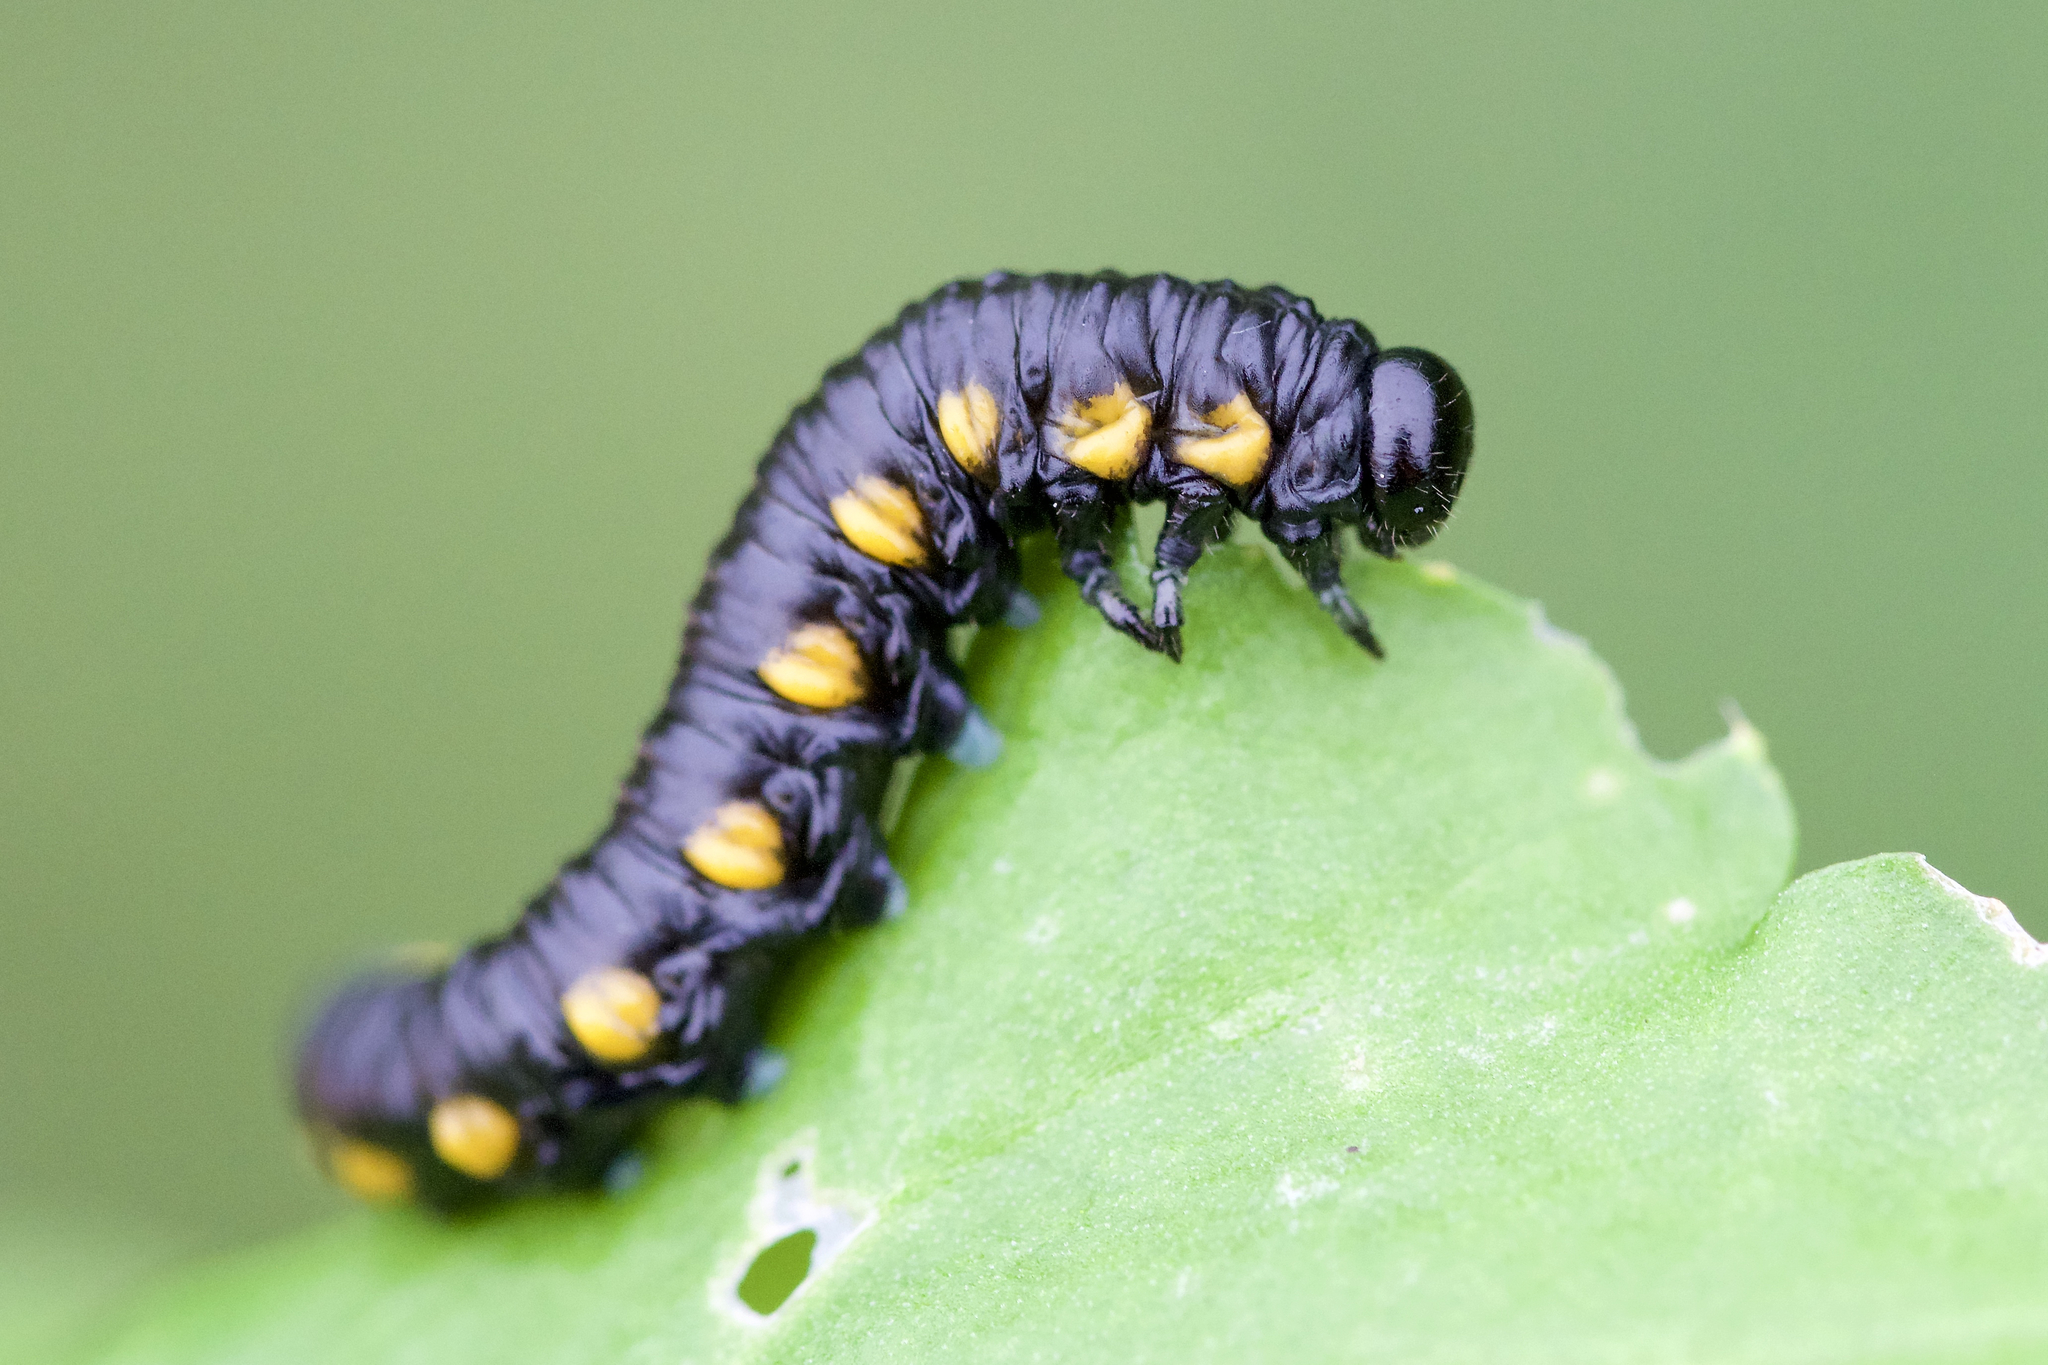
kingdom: Animalia
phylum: Arthropoda
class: Insecta
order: Hymenoptera
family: Tenthredinidae
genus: Euura
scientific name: Euura ventralis
